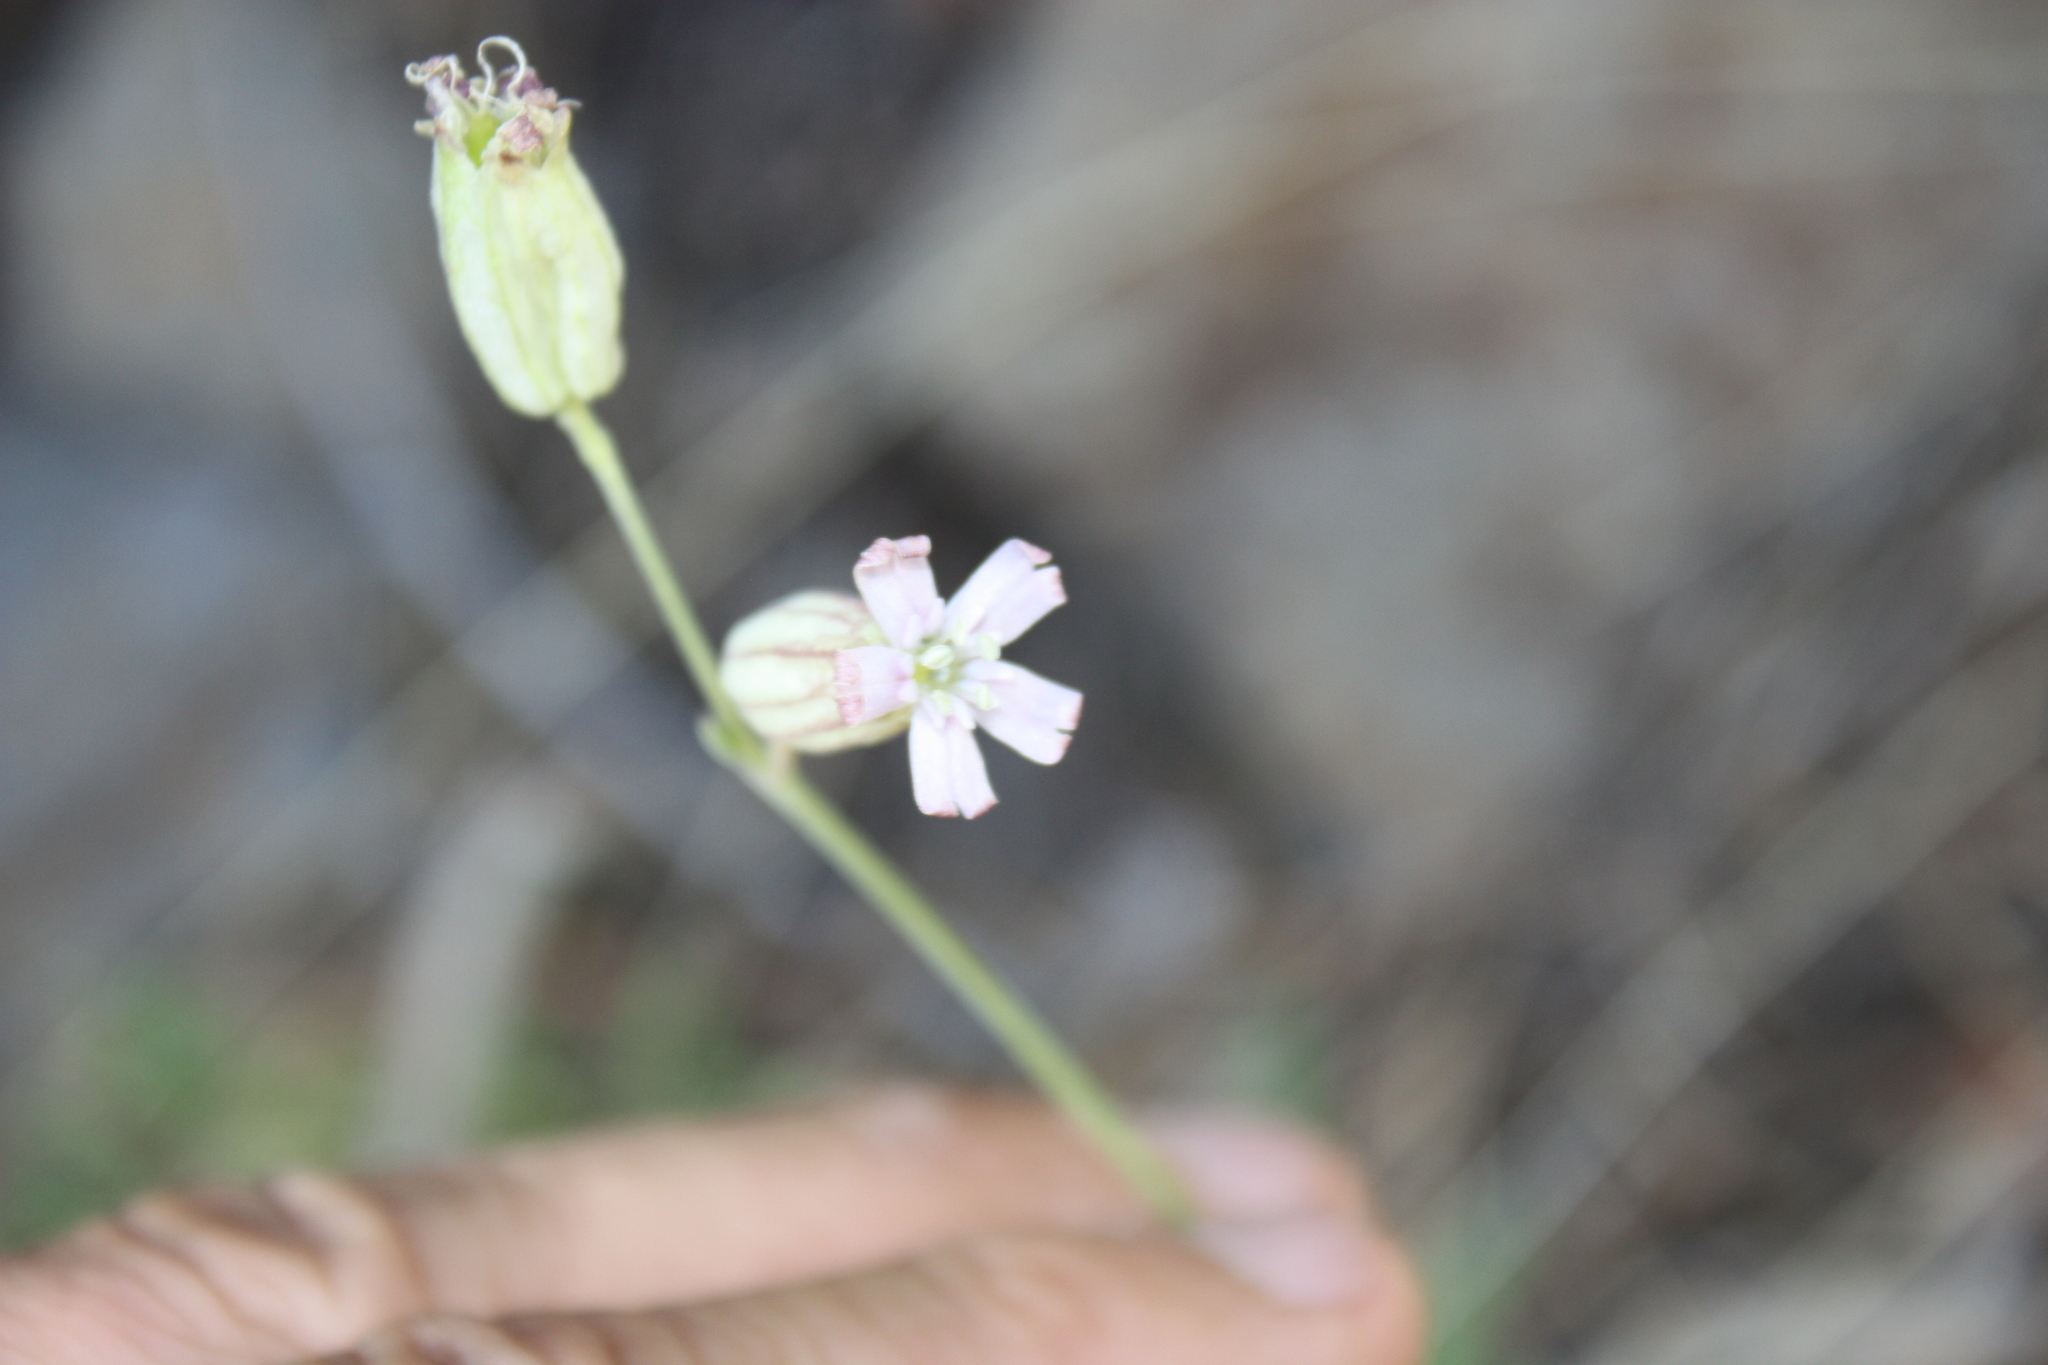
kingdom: Plantae
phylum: Tracheophyta
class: Magnoliopsida
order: Caryophyllales
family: Caryophyllaceae
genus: Silene
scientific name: Silene douglasii
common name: Douglas's catchfly
